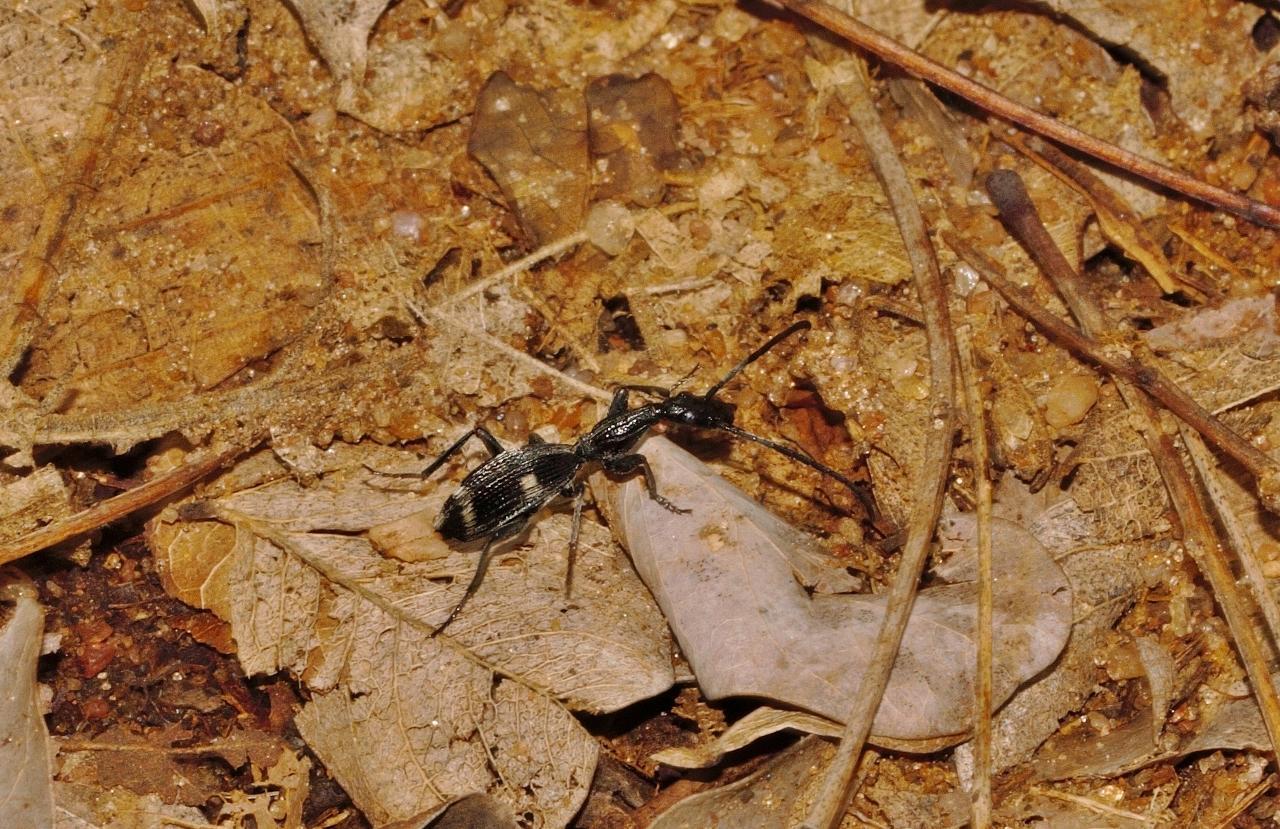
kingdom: Animalia
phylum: Arthropoda
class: Insecta
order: Coleoptera
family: Carabidae
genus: Atractonotus
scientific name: Atractonotus mulsantii
